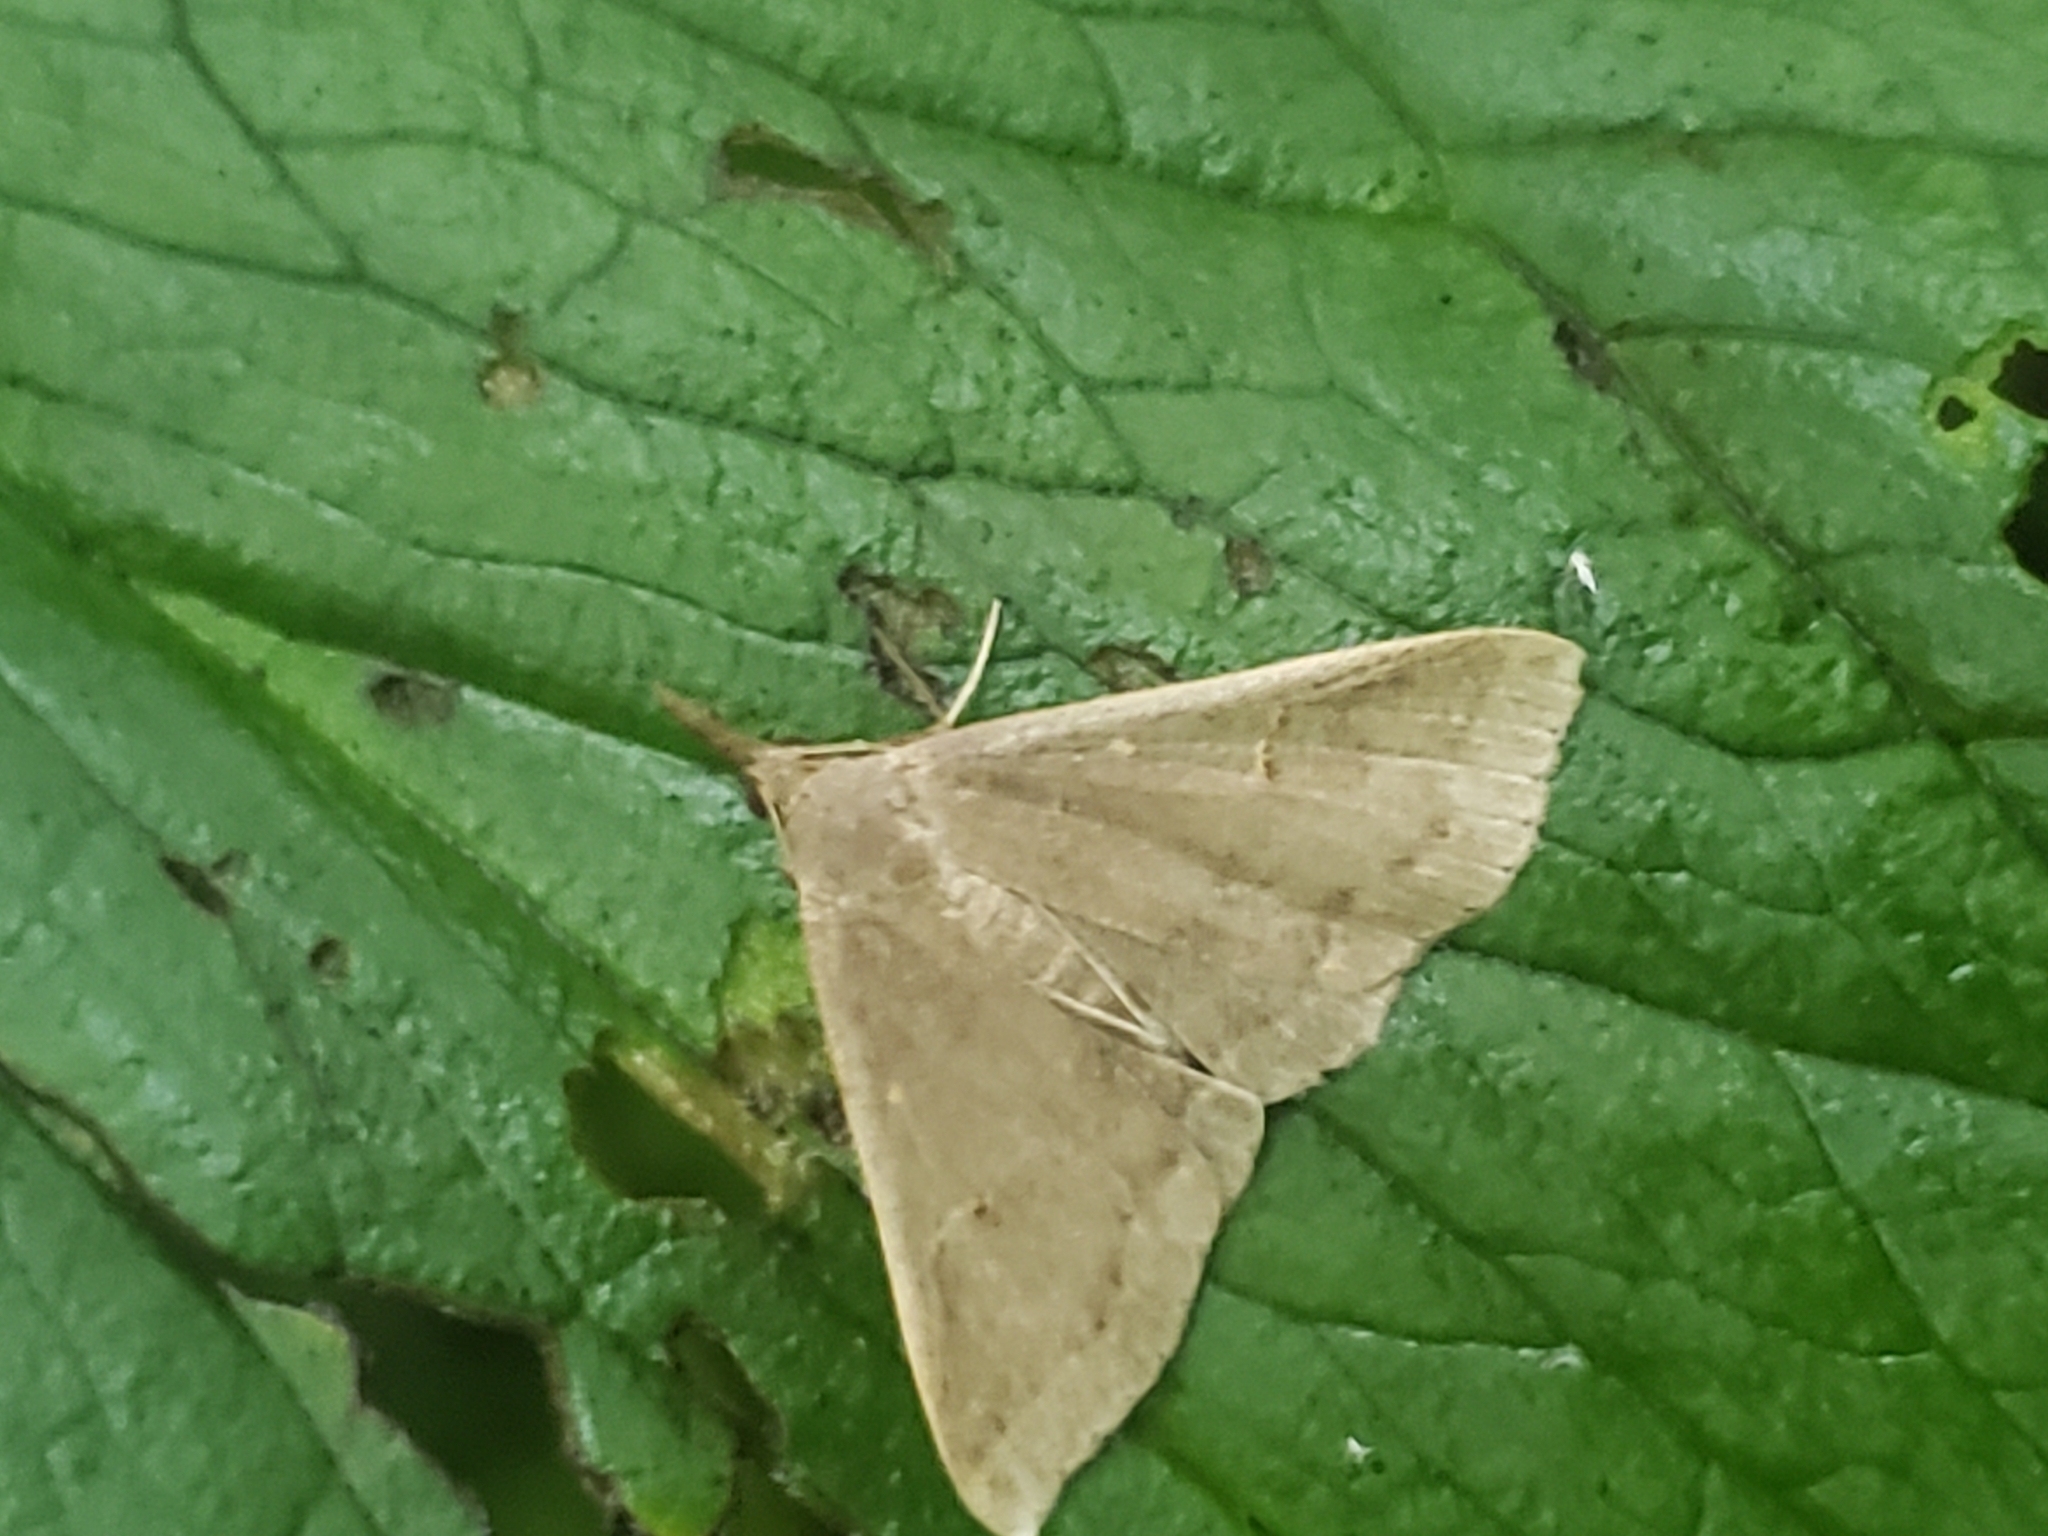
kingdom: Animalia
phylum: Arthropoda
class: Insecta
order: Lepidoptera
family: Erebidae
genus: Renia
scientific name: Renia adspergillus
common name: Speckled renia moth
